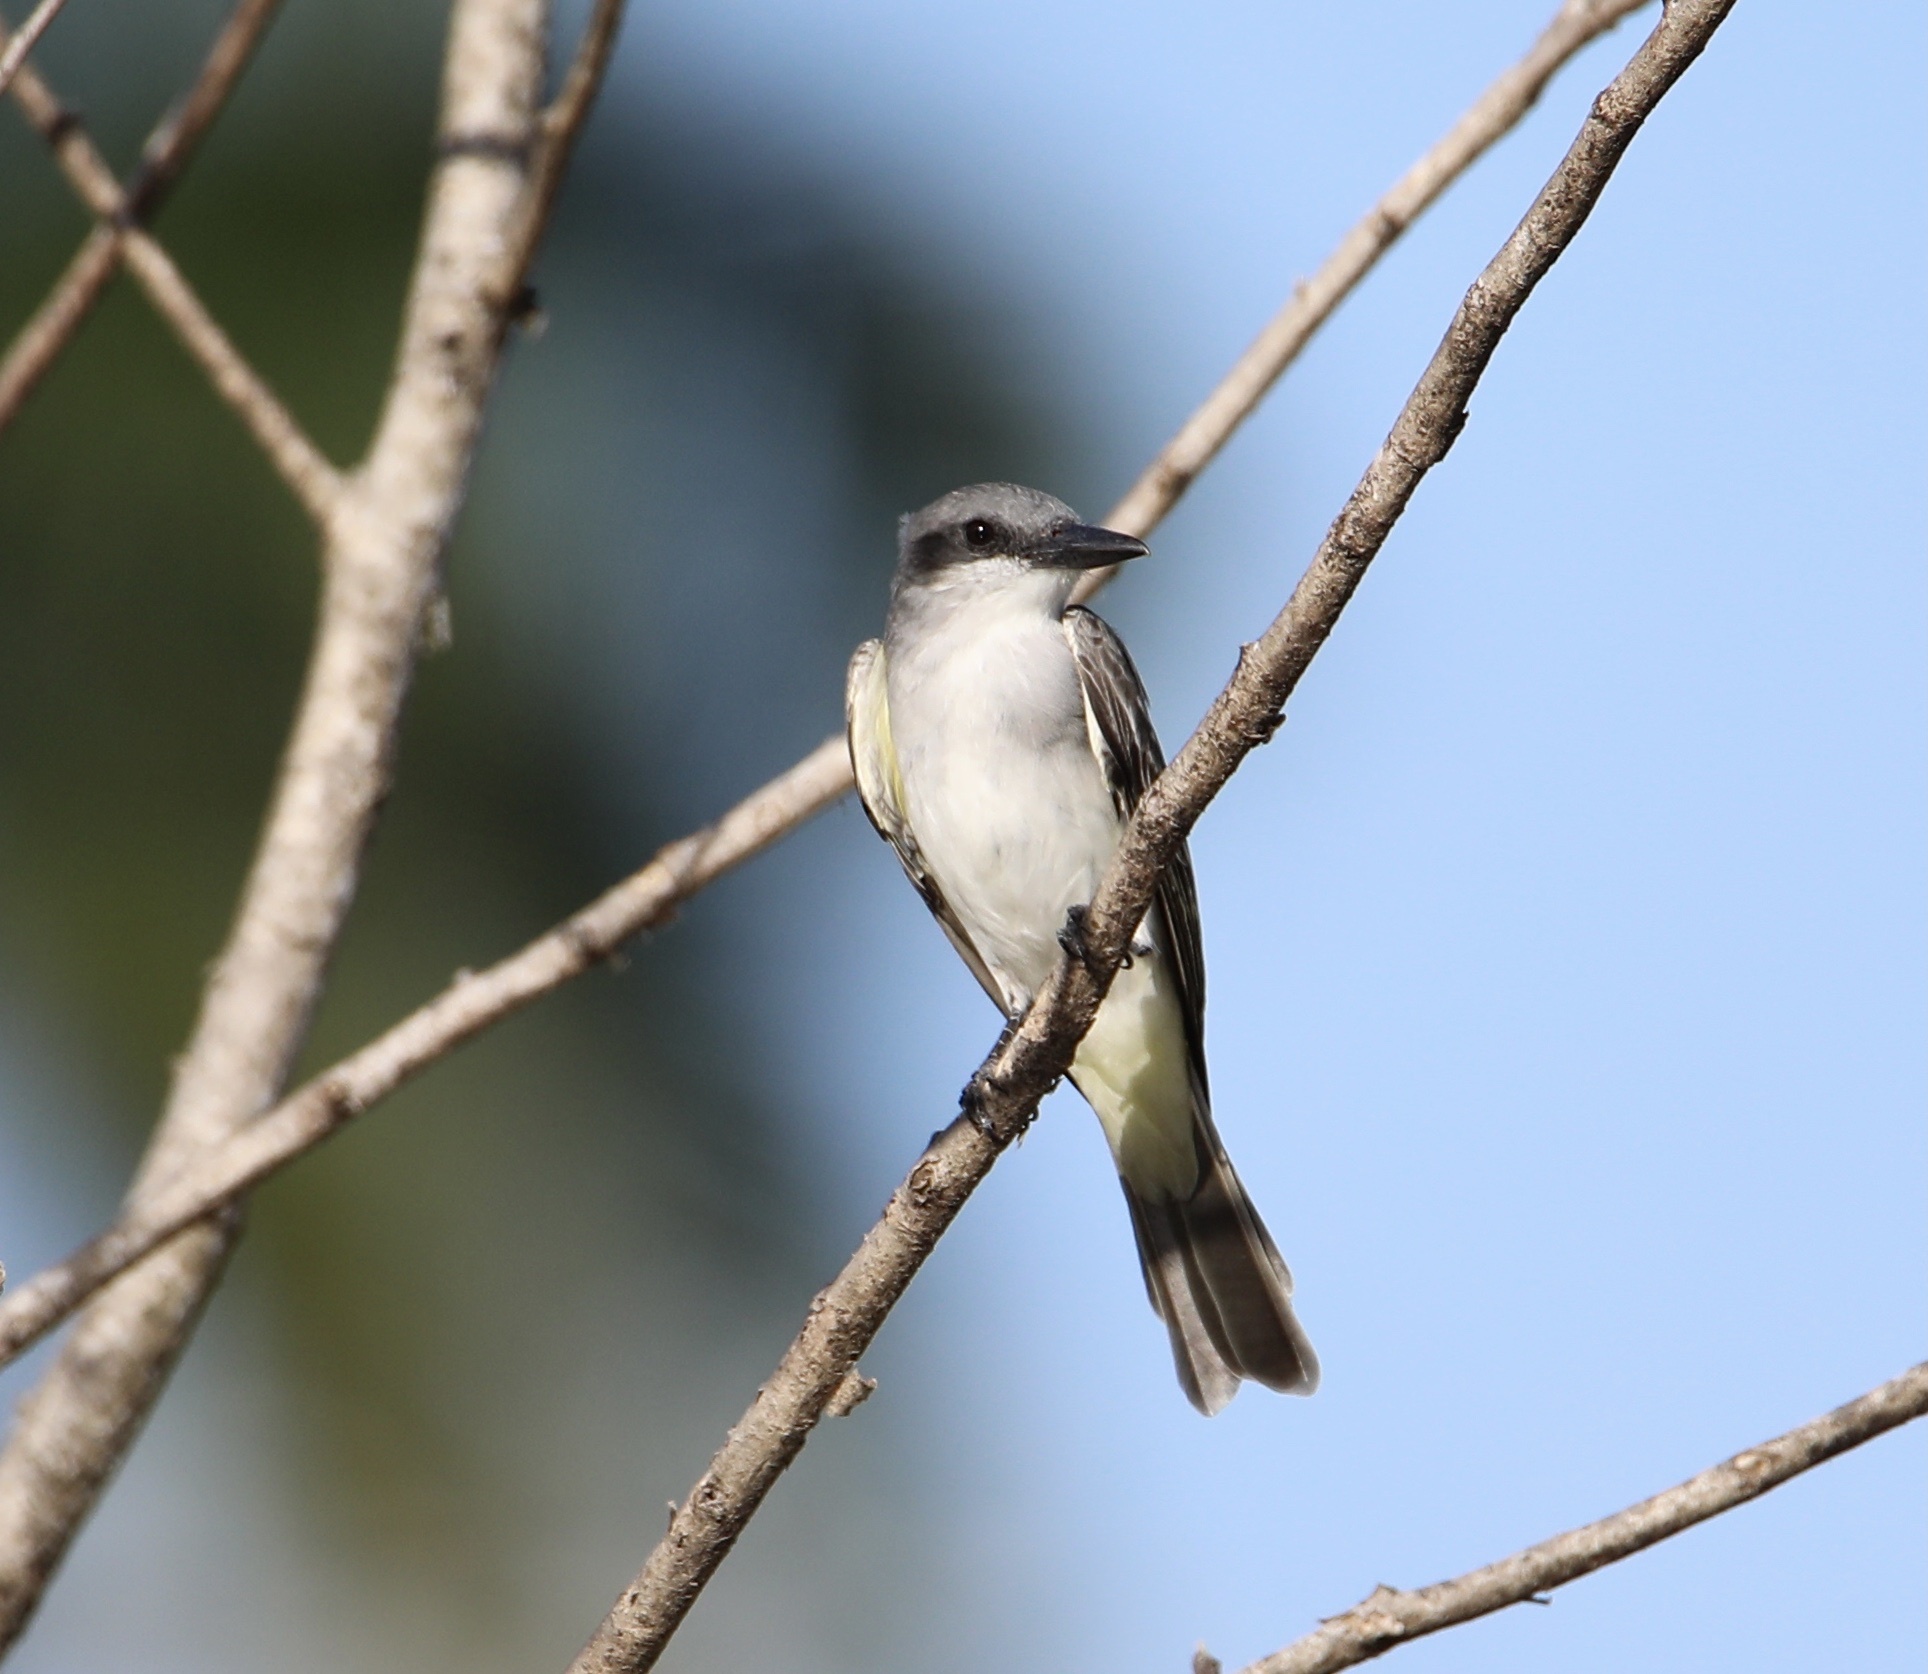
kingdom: Animalia
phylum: Chordata
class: Aves
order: Passeriformes
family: Tyrannidae
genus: Tyrannus
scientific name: Tyrannus dominicensis
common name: Gray kingbird
